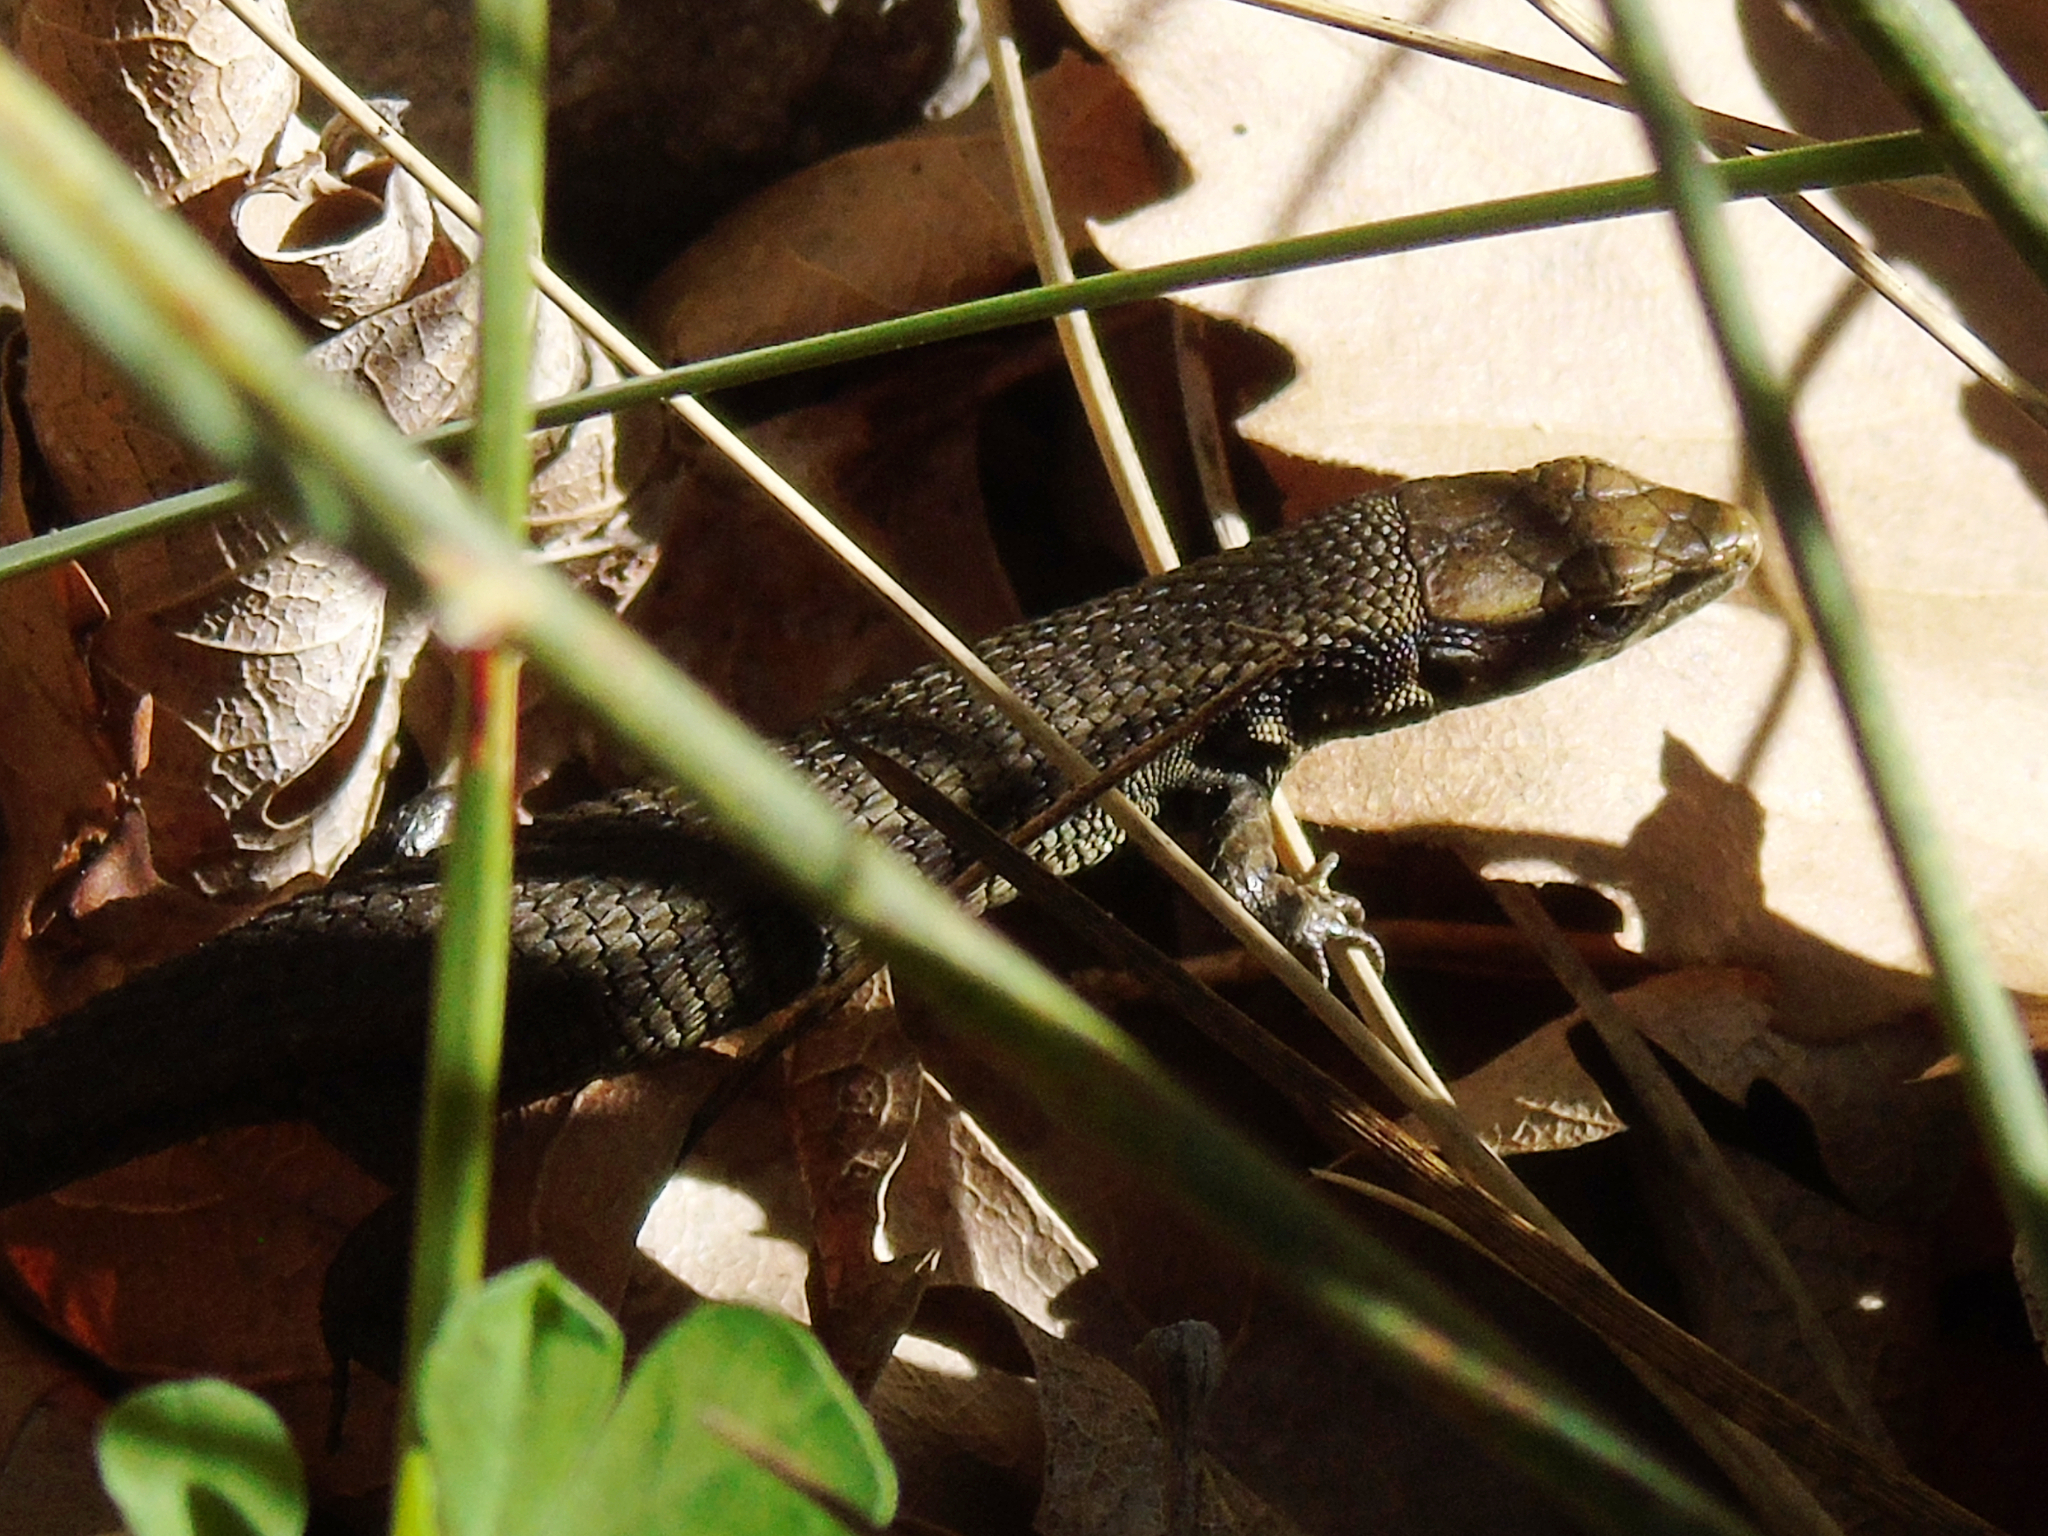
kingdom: Animalia
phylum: Chordata
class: Squamata
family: Lacertidae
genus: Algyroides
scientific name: Algyroides moreoticus
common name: Greek algyroides
